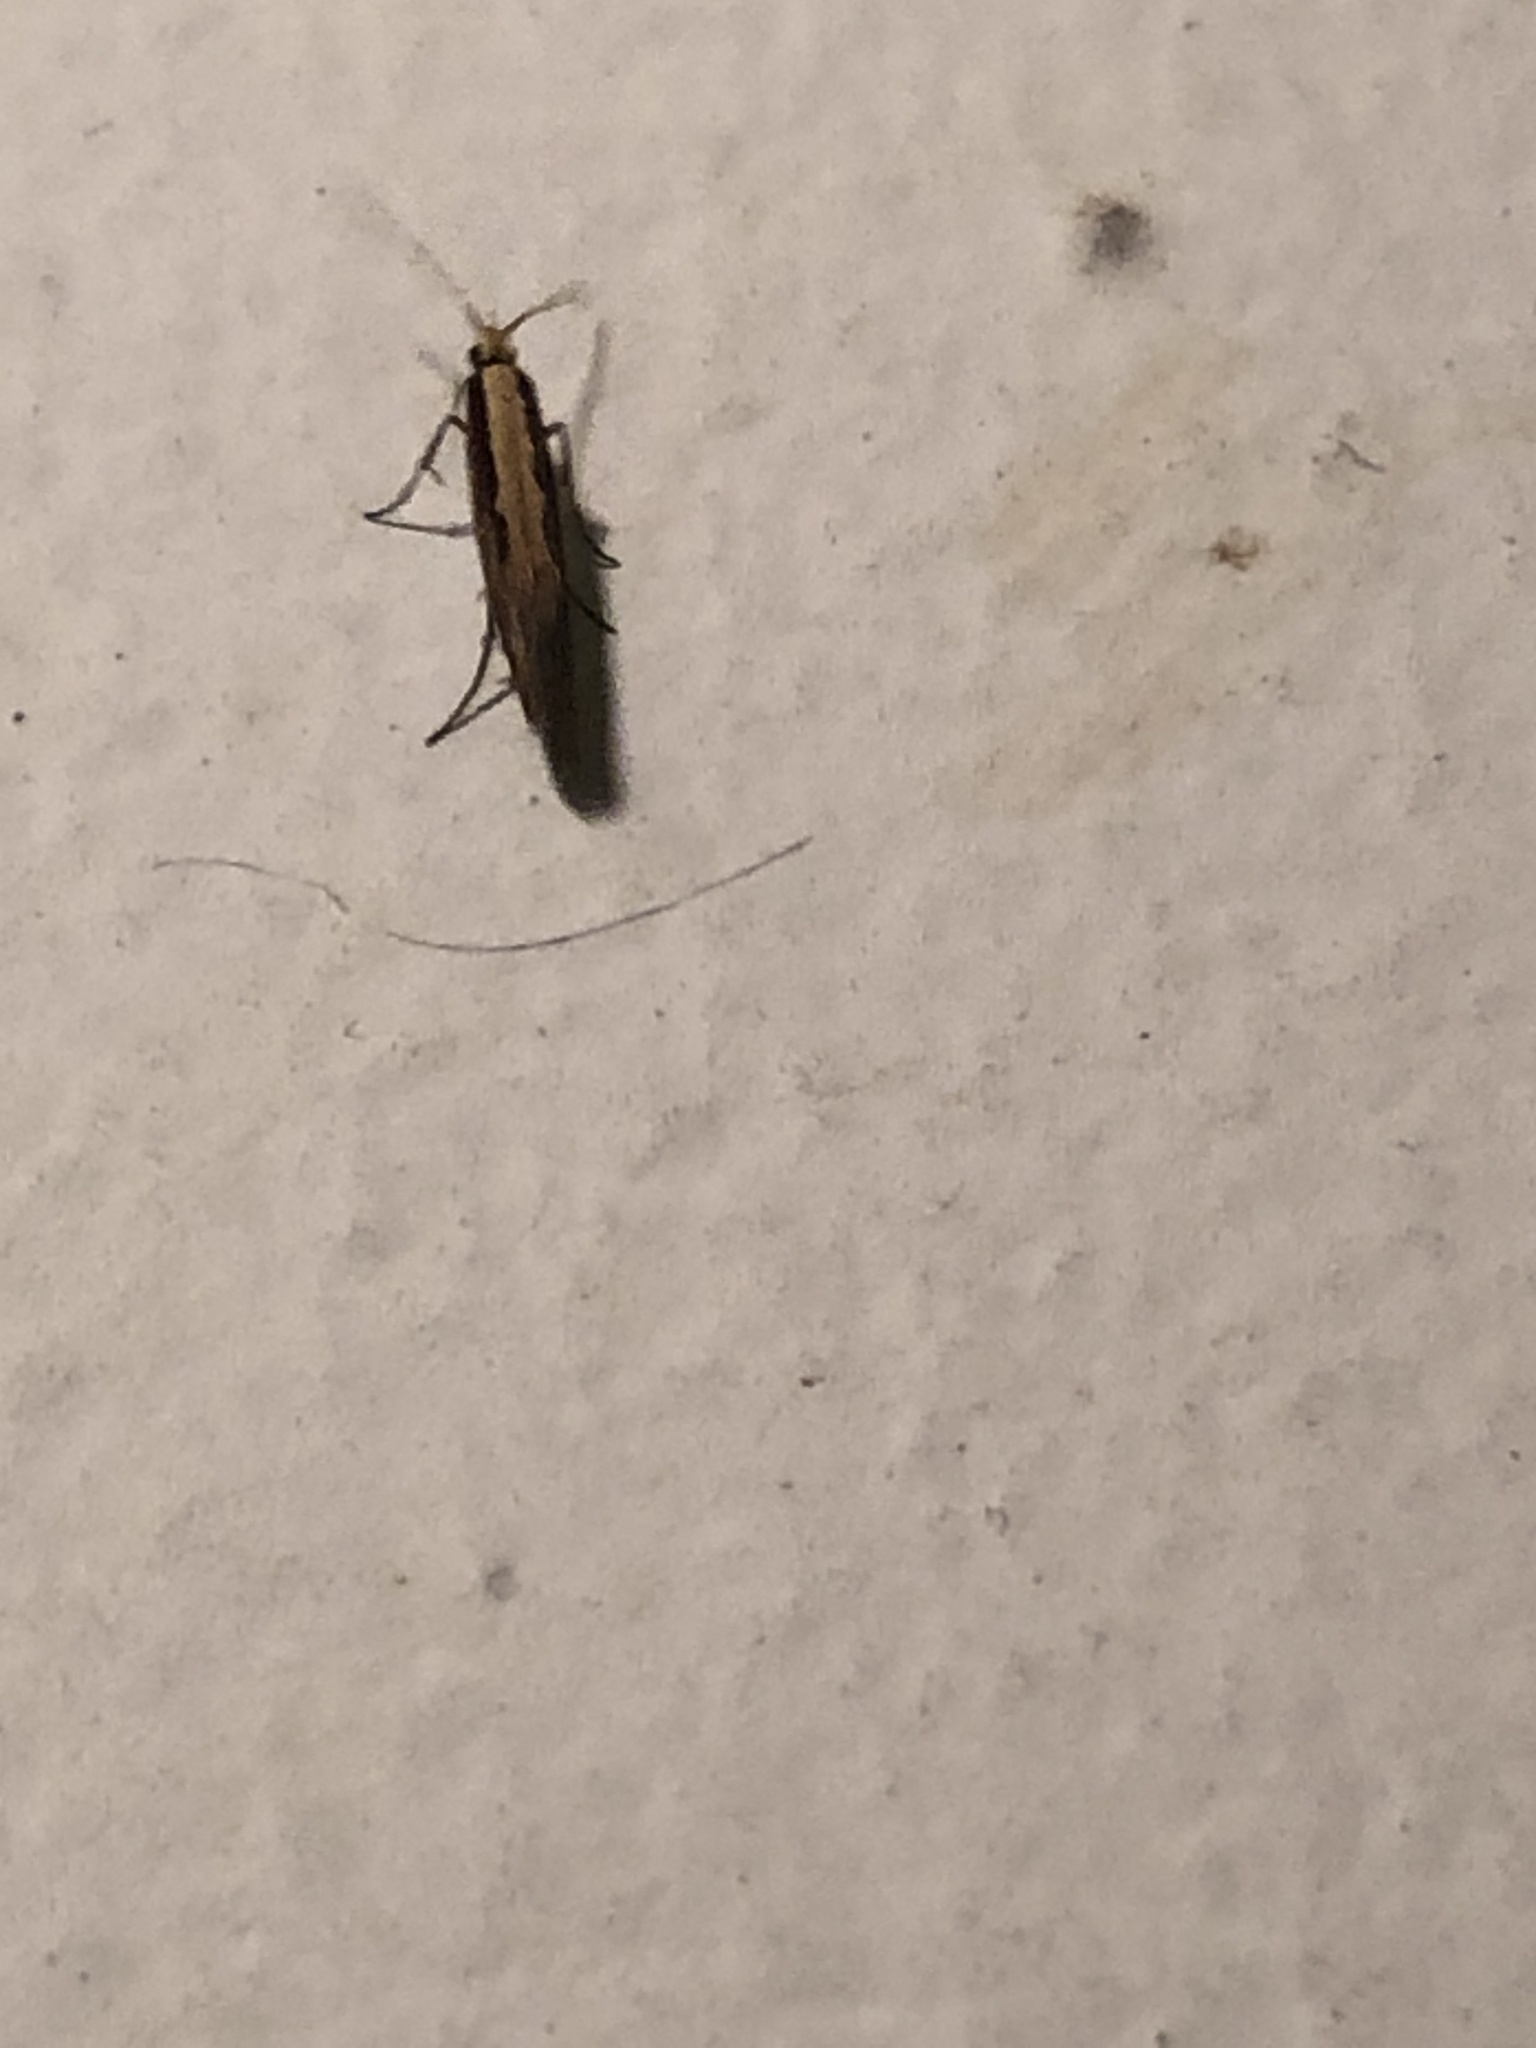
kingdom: Animalia
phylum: Arthropoda
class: Insecta
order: Lepidoptera
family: Plutellidae
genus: Plutella
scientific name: Plutella xylostella
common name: Diamond-back moth
